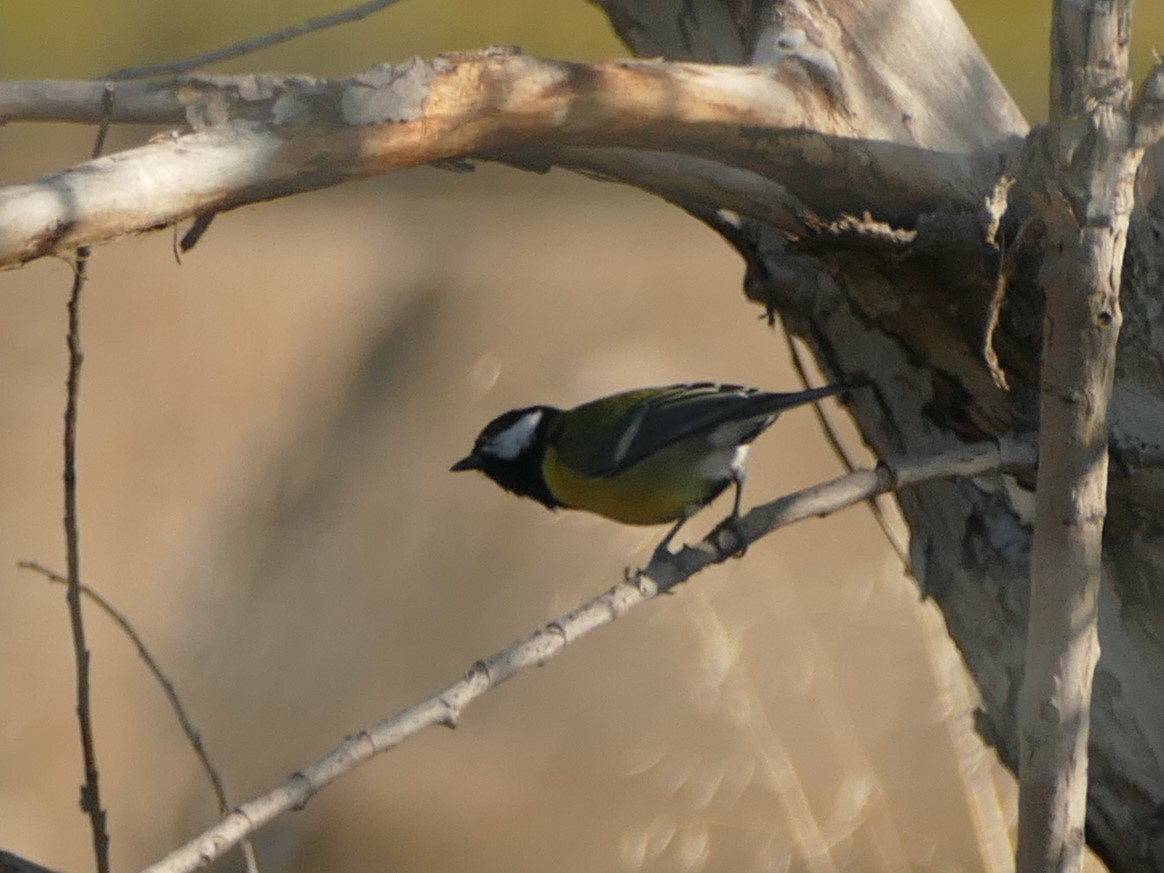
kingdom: Animalia
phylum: Chordata
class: Aves
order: Passeriformes
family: Paridae
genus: Parus
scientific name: Parus major
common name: Great tit
